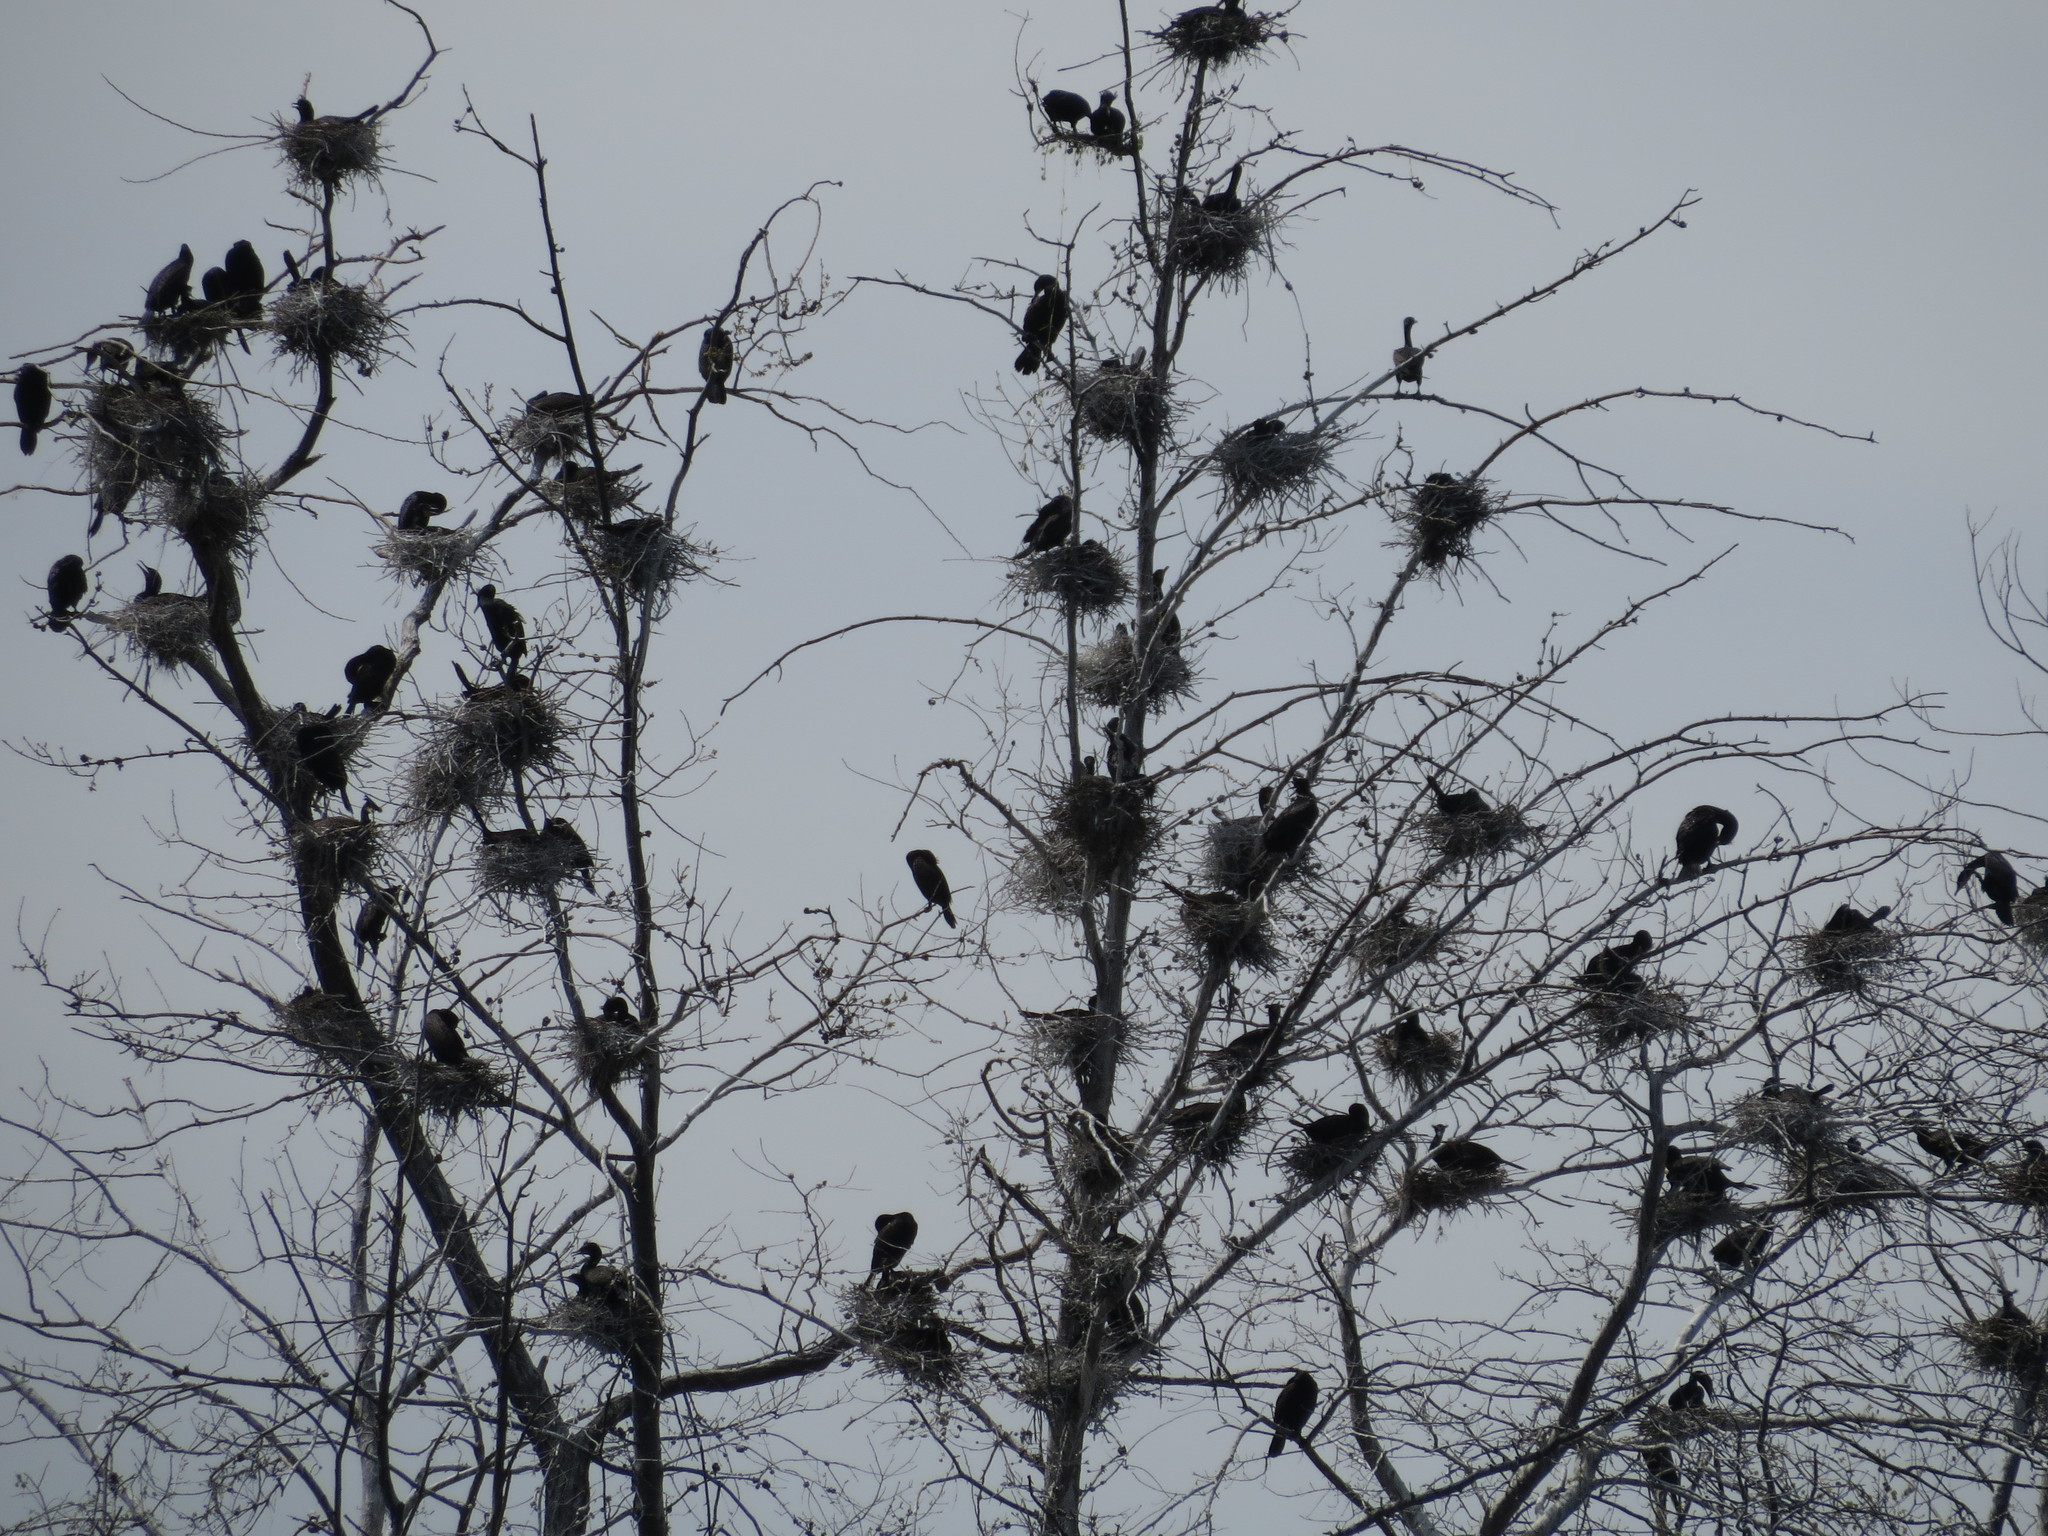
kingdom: Animalia
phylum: Chordata
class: Aves
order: Suliformes
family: Phalacrocoracidae
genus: Phalacrocorax
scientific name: Phalacrocorax auritus
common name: Double-crested cormorant
